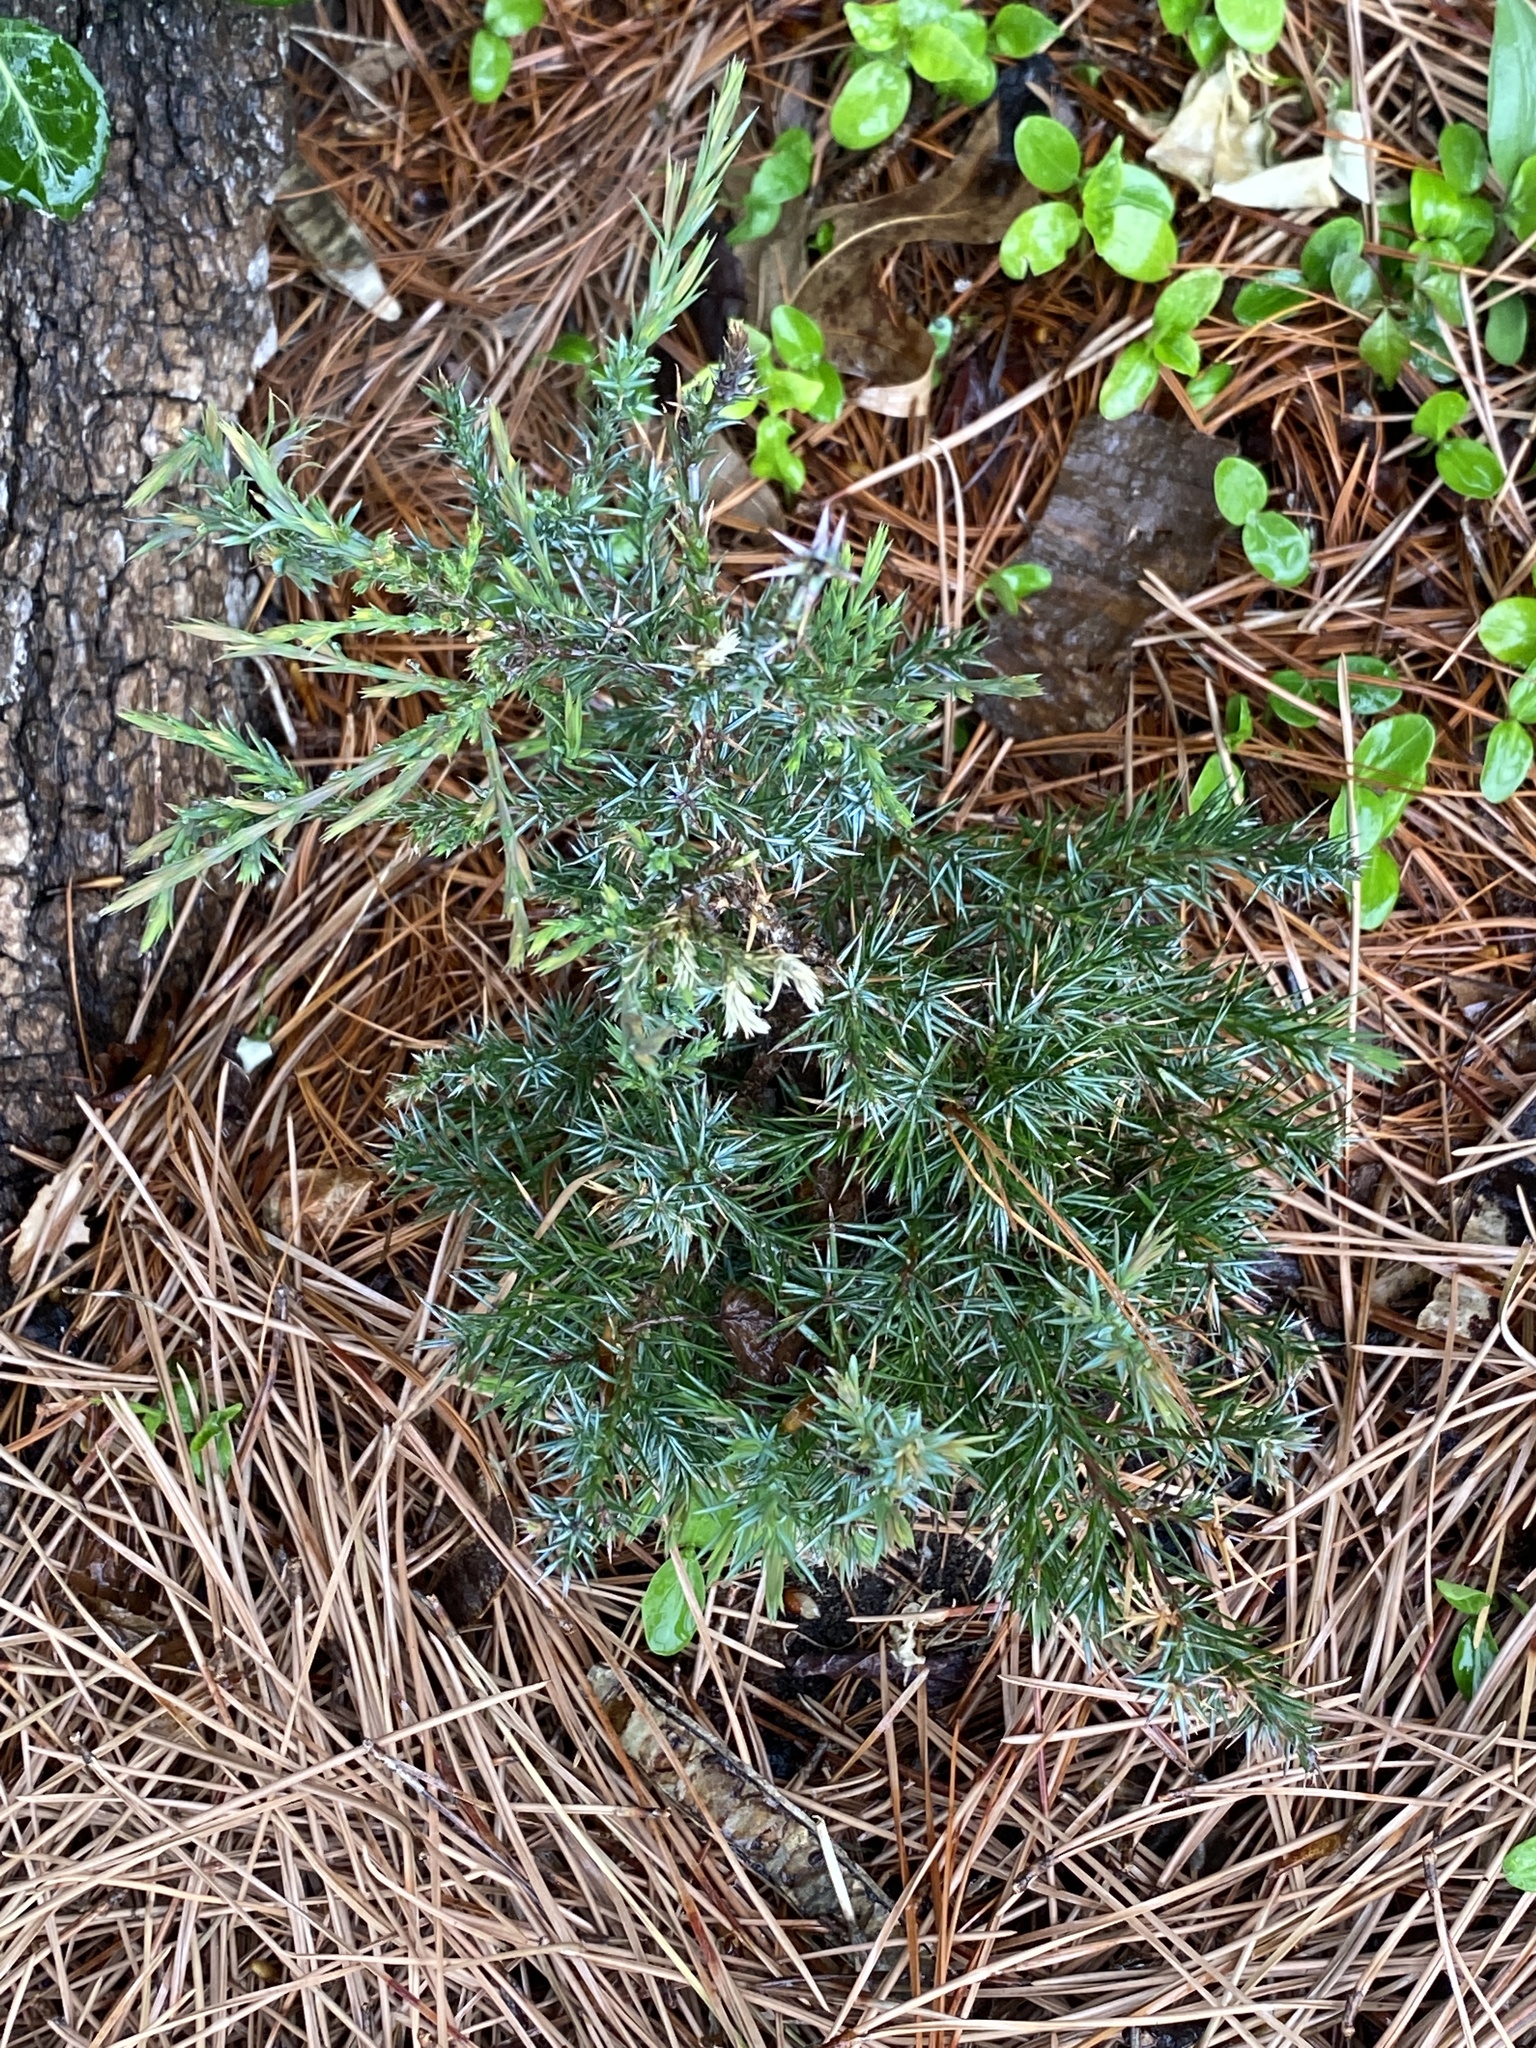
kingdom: Plantae
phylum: Tracheophyta
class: Pinopsida
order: Pinales
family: Cupressaceae
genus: Juniperus
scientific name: Juniperus virginiana
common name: Red juniper
